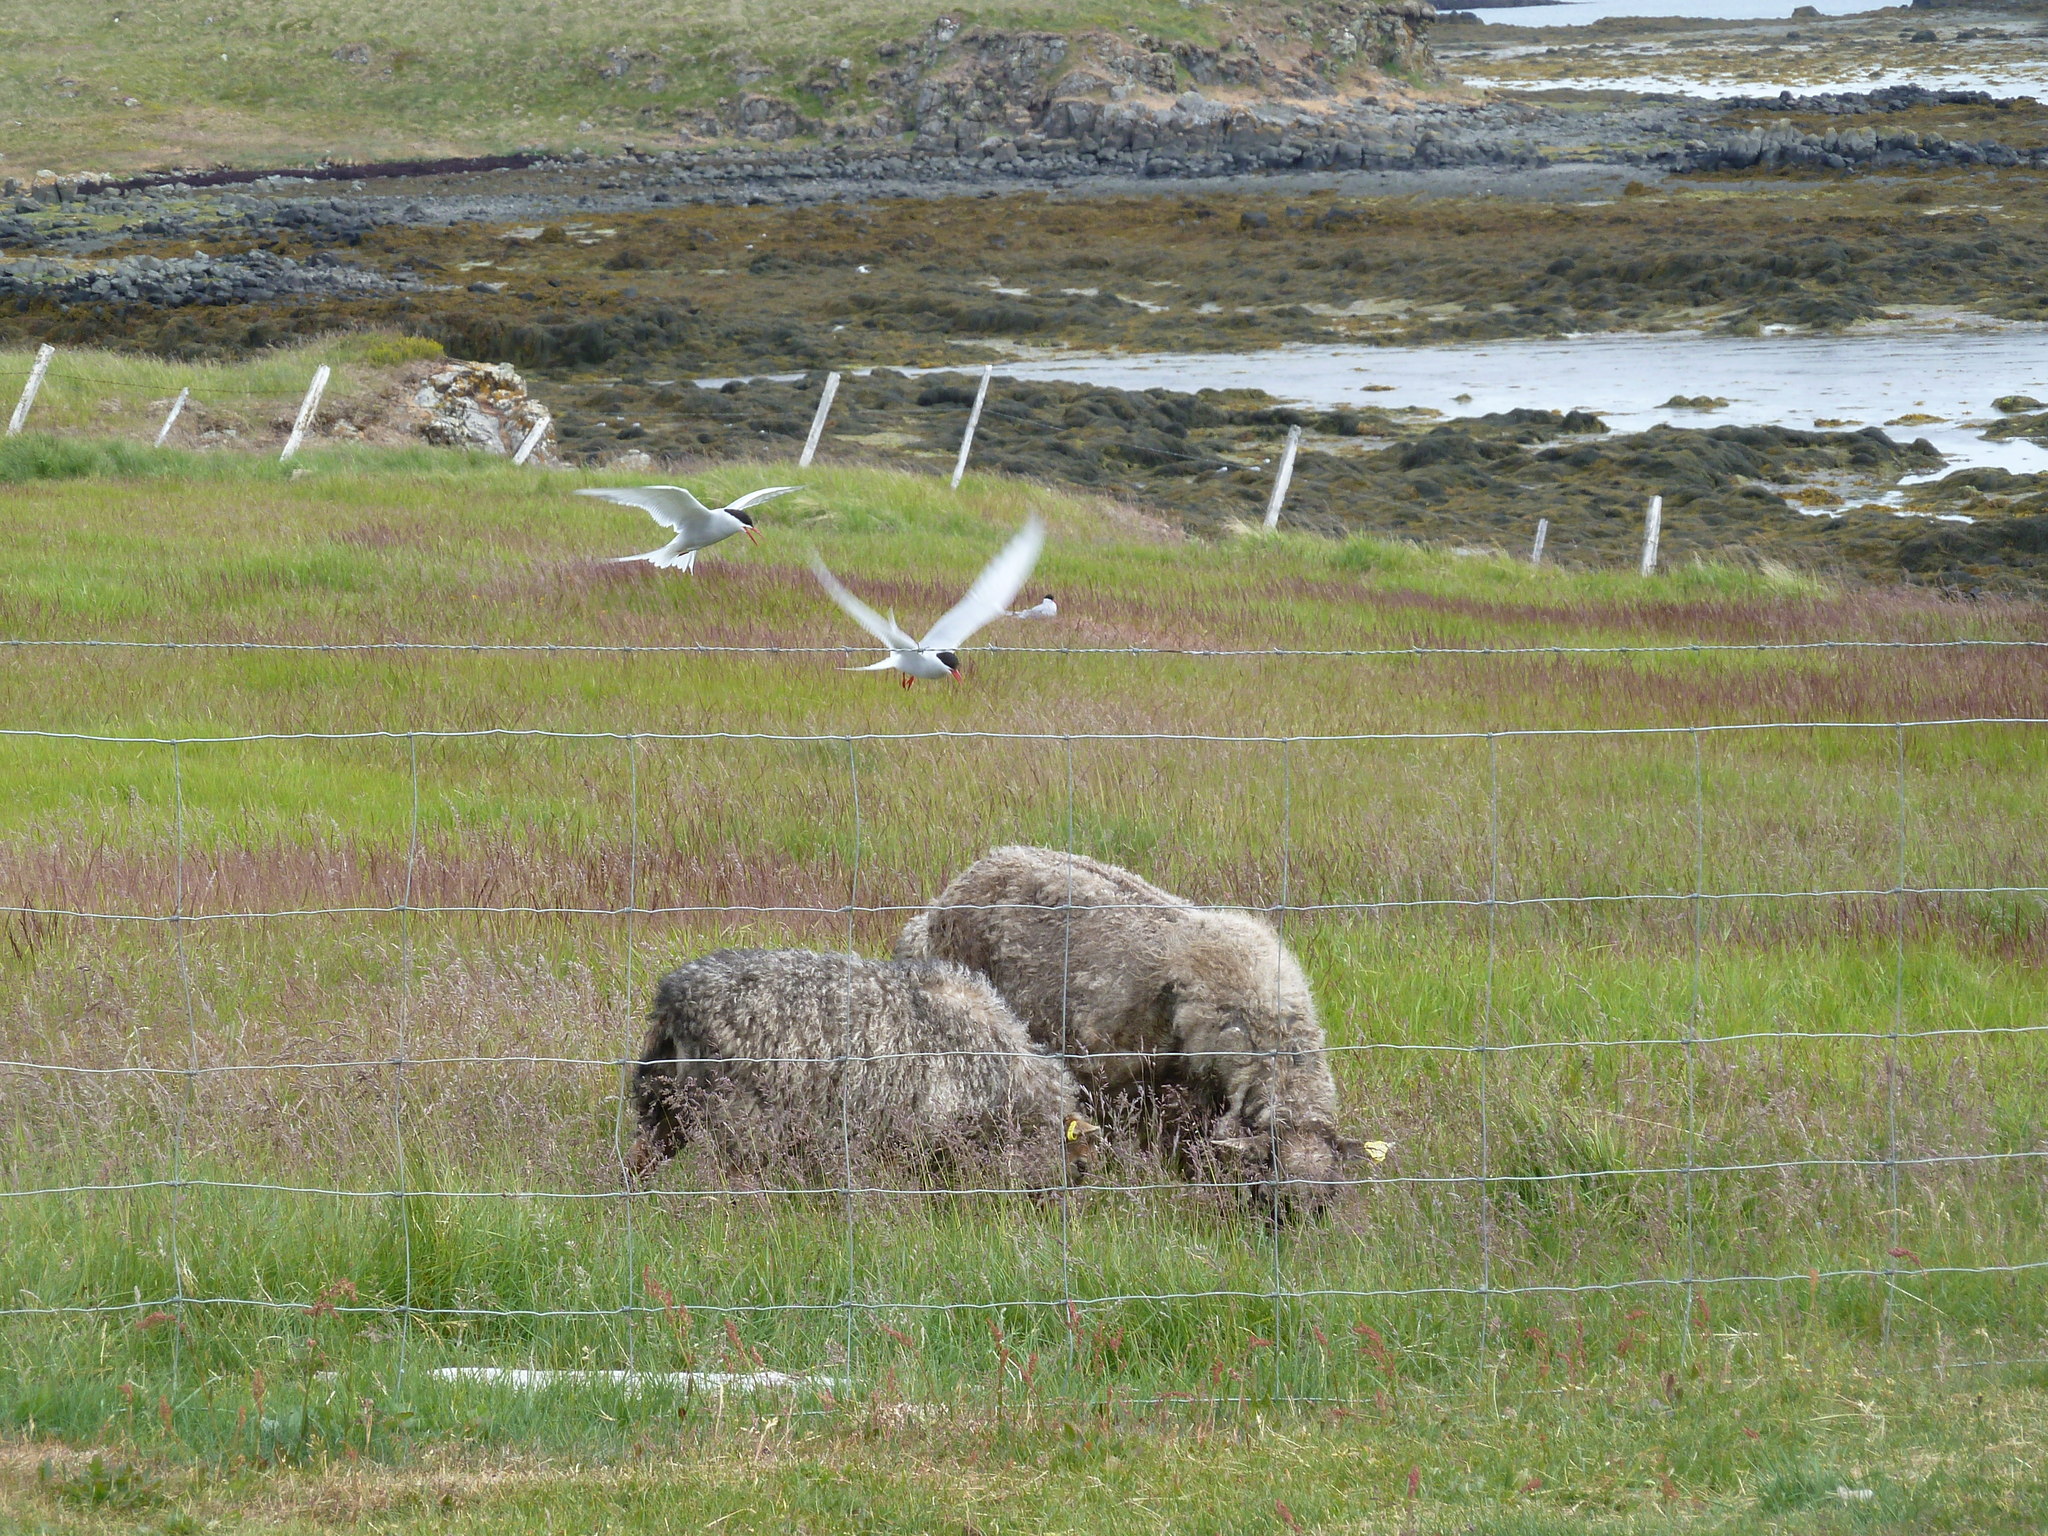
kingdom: Animalia
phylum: Chordata
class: Aves
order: Charadriiformes
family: Laridae
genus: Sterna
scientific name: Sterna paradisaea
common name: Arctic tern
